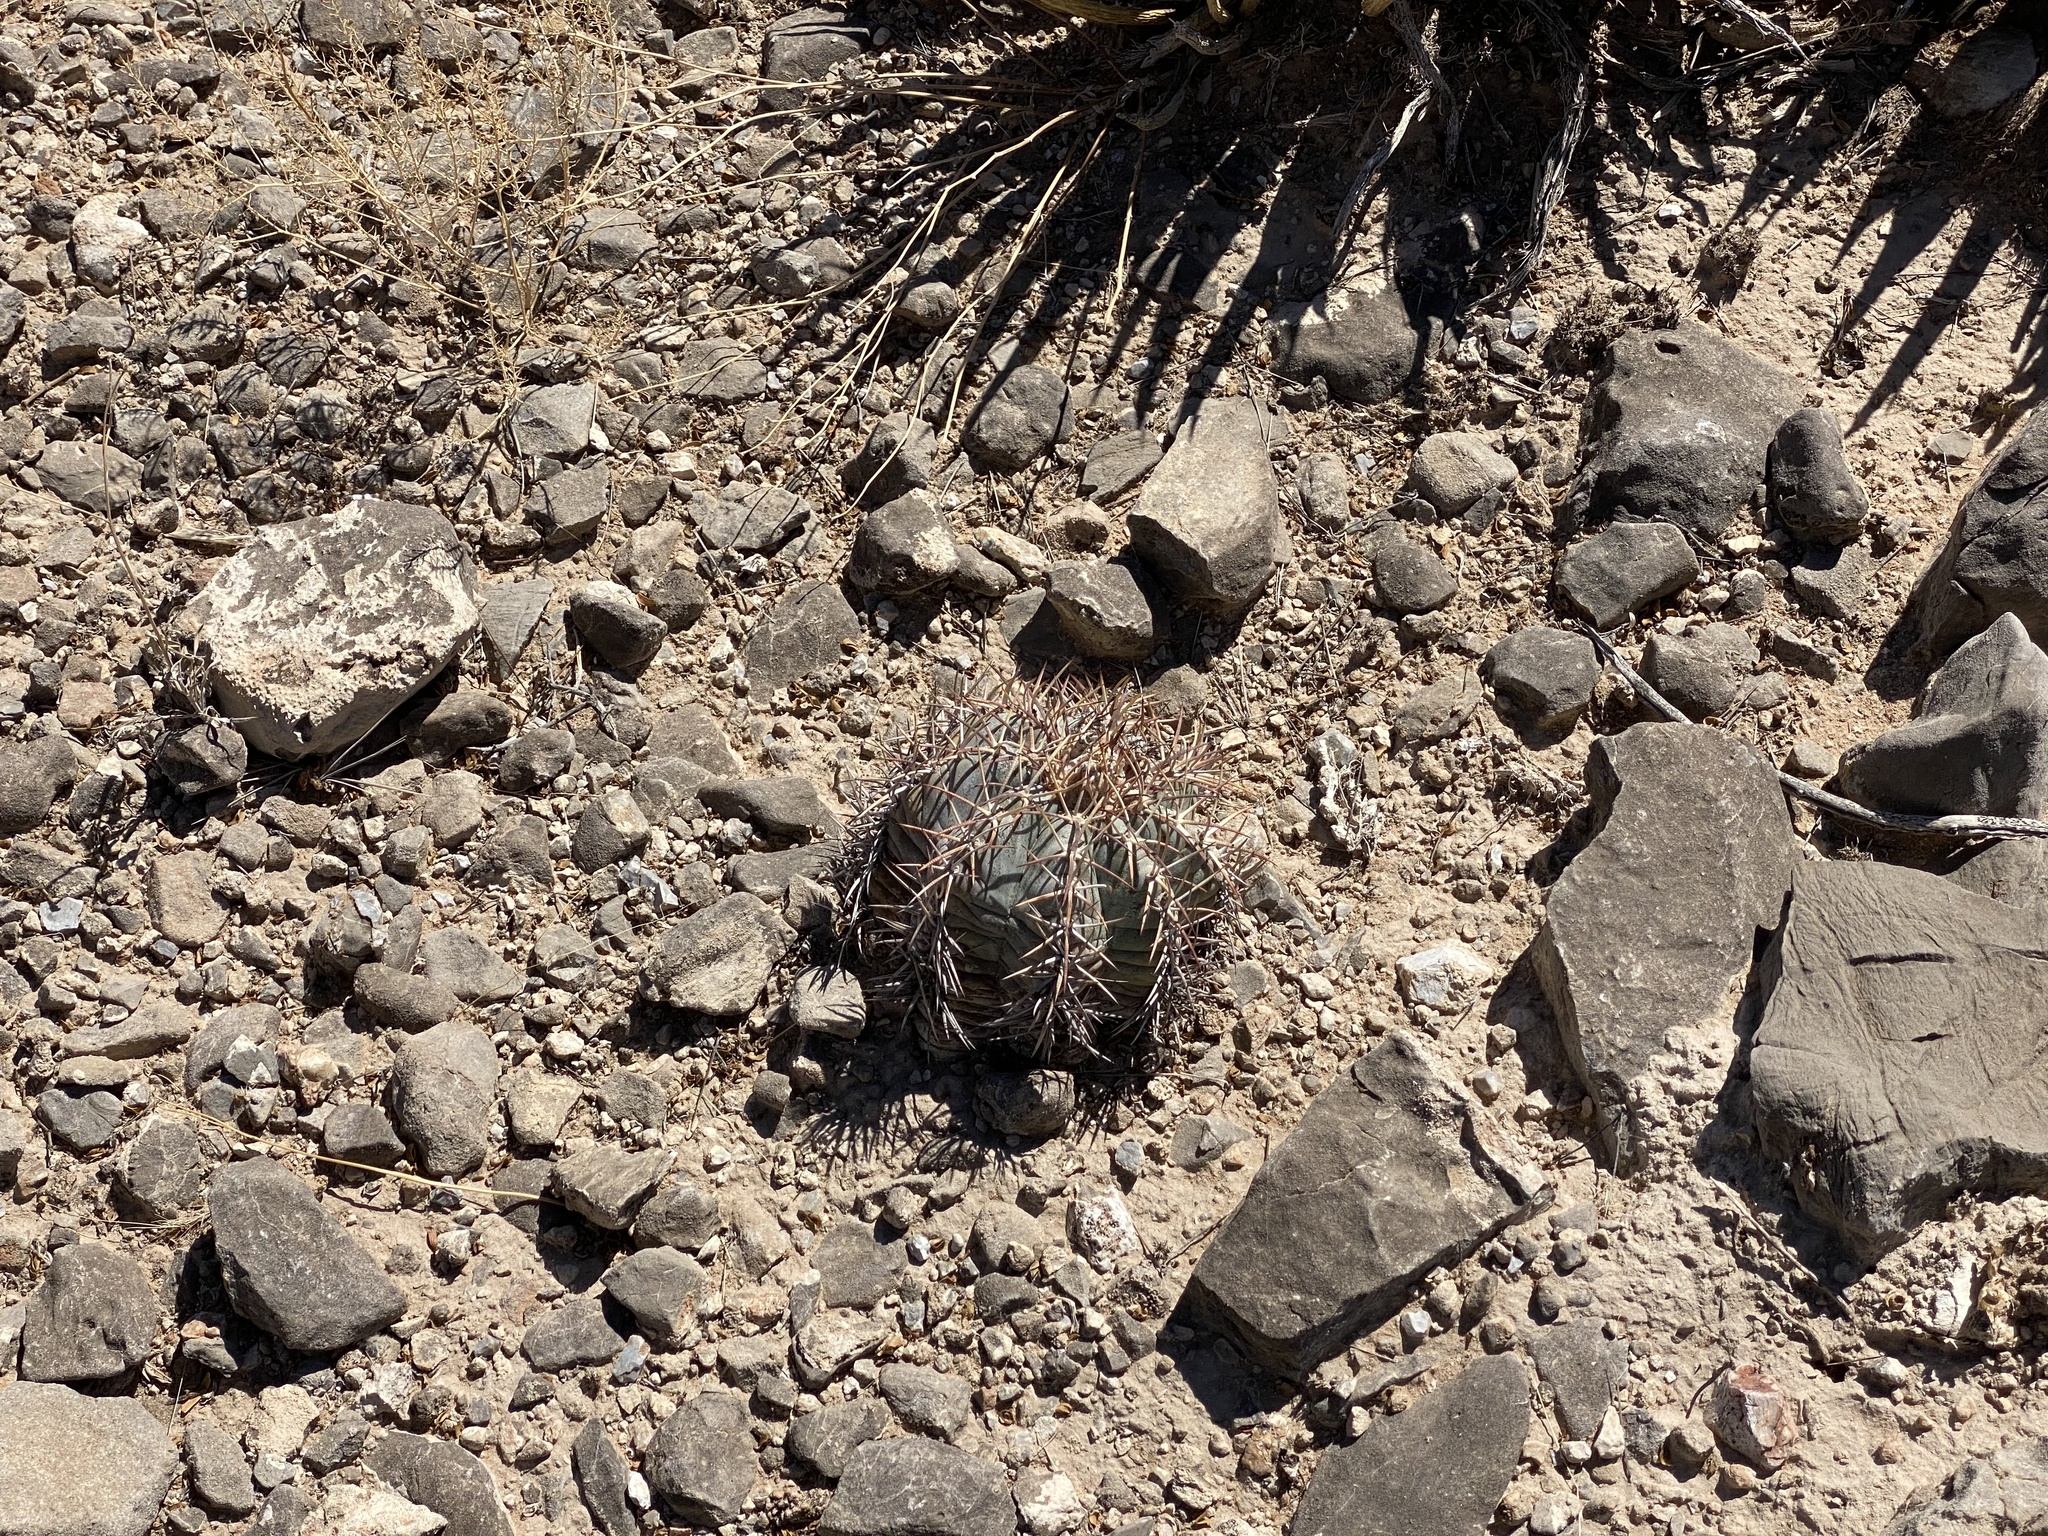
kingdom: Plantae
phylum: Tracheophyta
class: Magnoliopsida
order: Caryophyllales
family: Cactaceae
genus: Echinocactus
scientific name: Echinocactus horizonthalonius
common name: Devilshead
